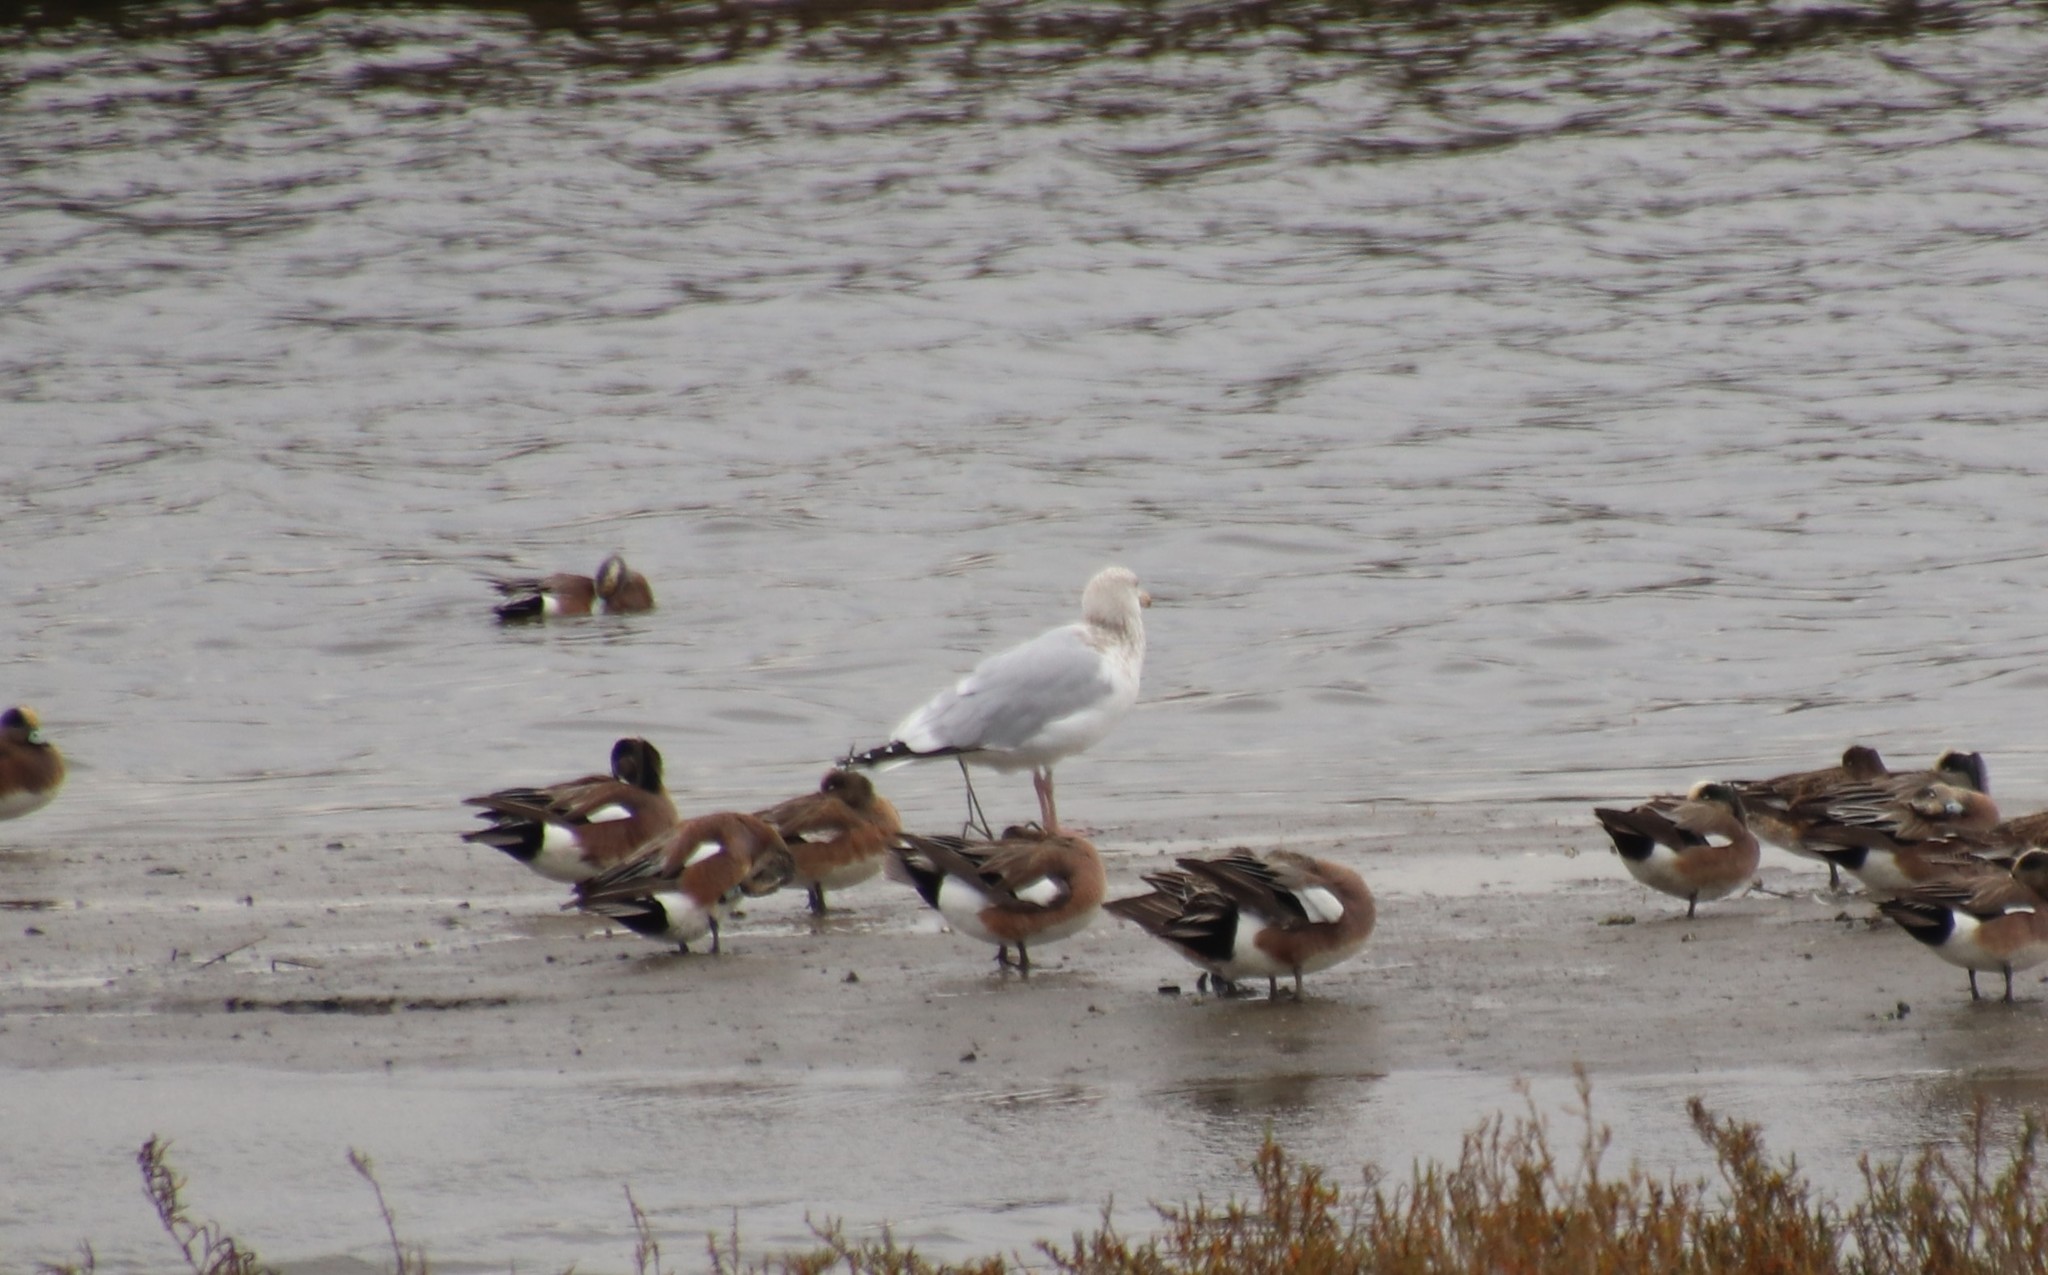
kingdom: Animalia
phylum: Chordata
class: Aves
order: Charadriiformes
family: Laridae
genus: Larus
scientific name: Larus argentatus
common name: Herring gull
